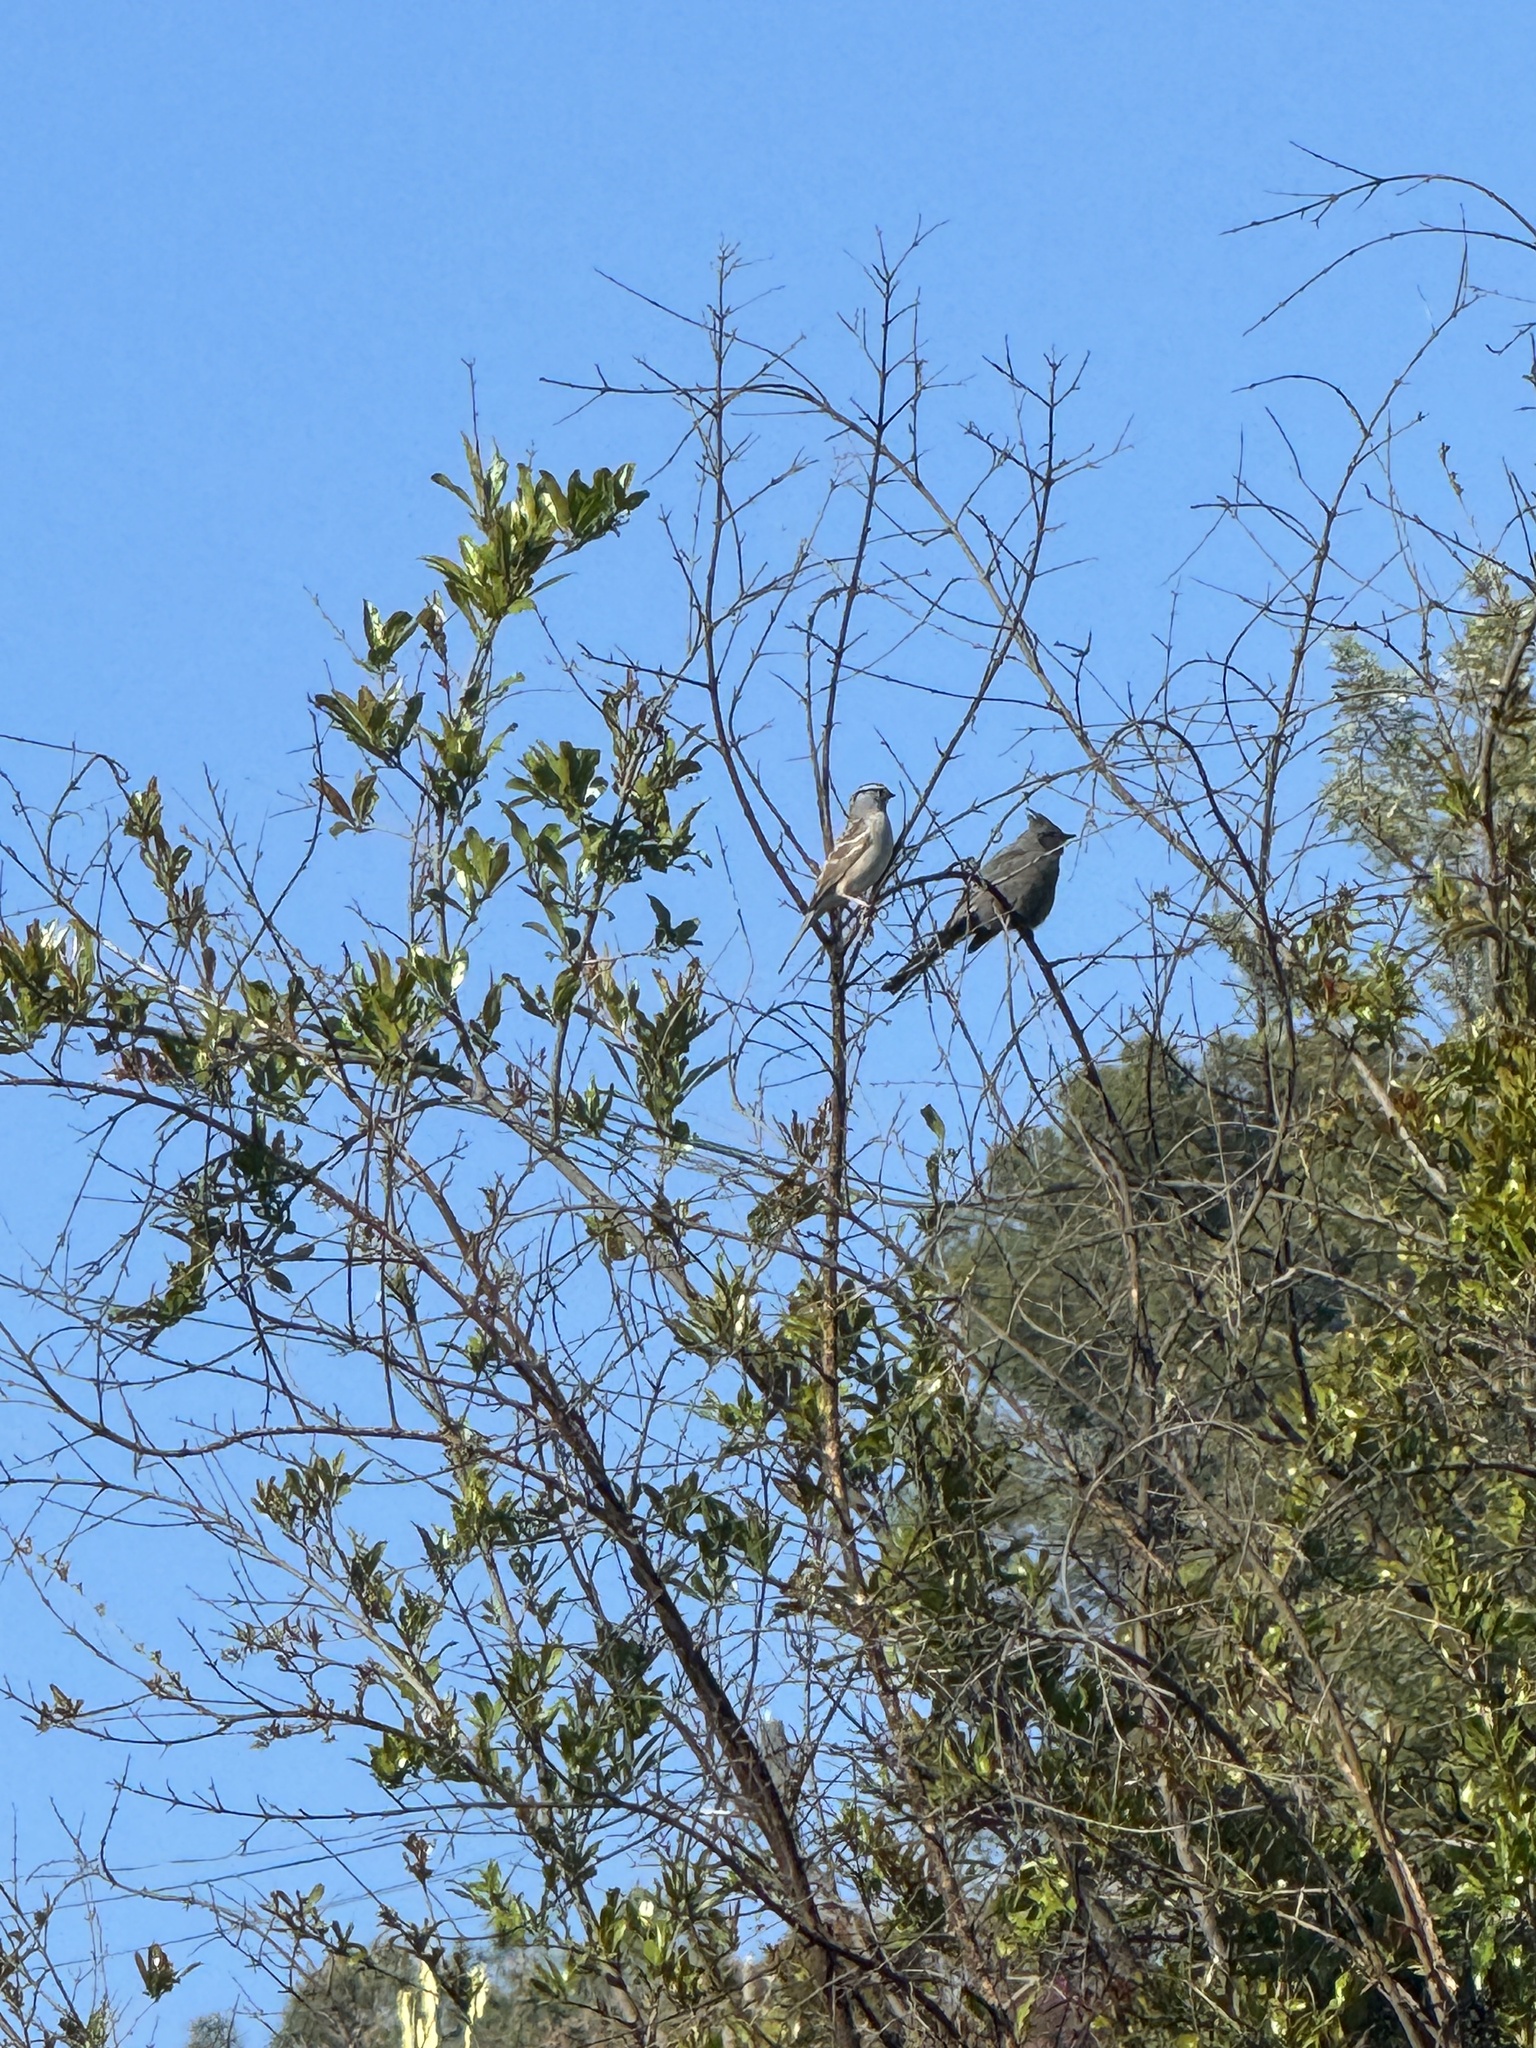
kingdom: Animalia
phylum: Chordata
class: Aves
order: Passeriformes
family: Ptilogonatidae
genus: Phainopepla
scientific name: Phainopepla nitens
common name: Phainopepla
